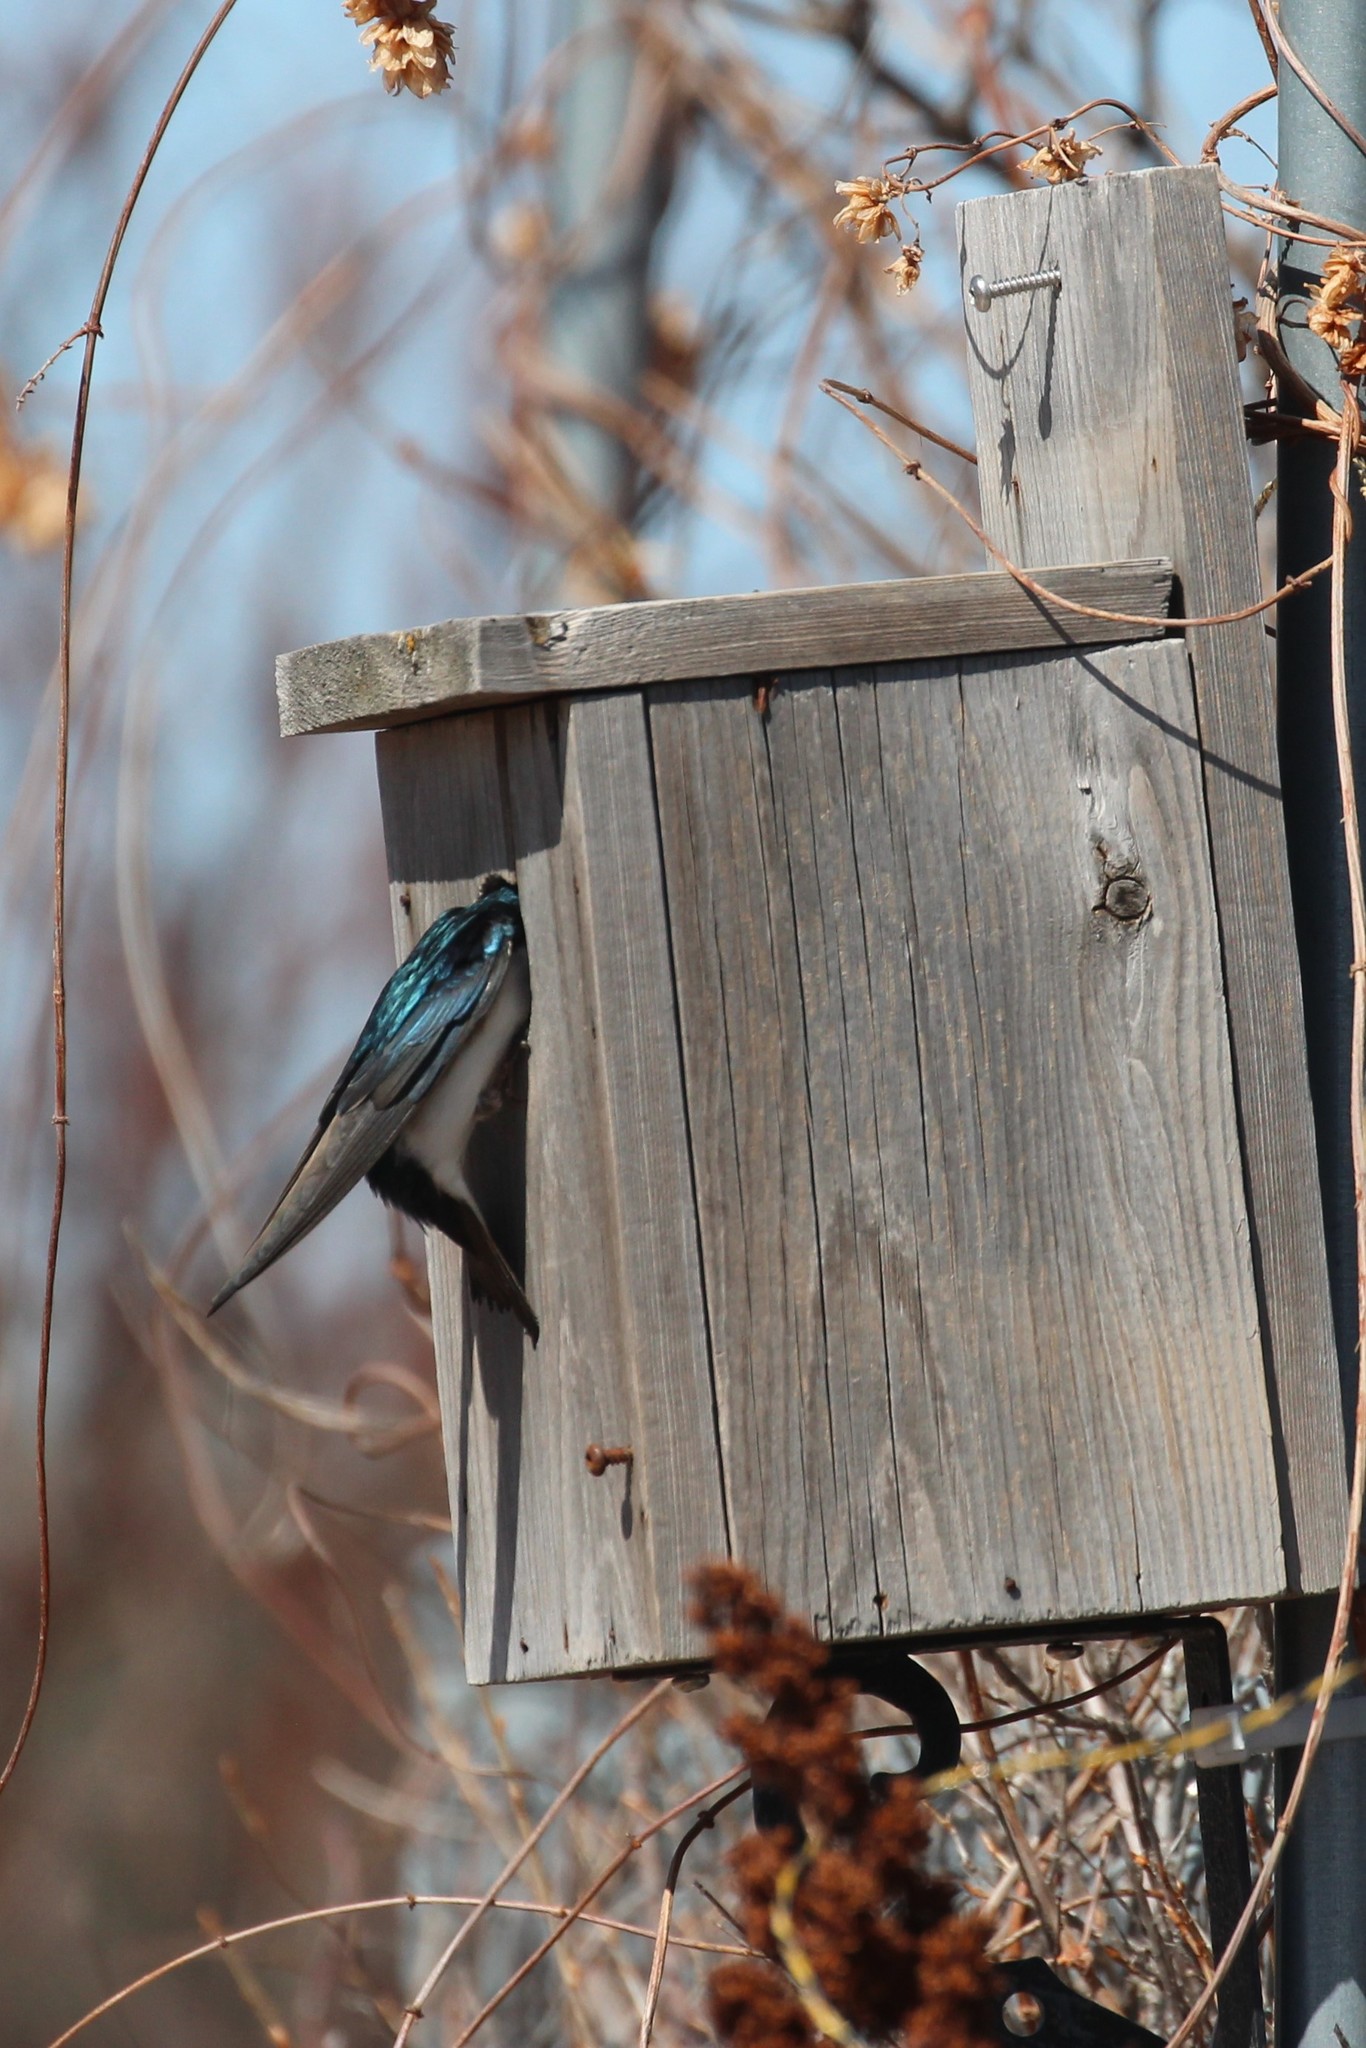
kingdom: Animalia
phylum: Chordata
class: Aves
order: Passeriformes
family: Hirundinidae
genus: Tachycineta
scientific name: Tachycineta bicolor
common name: Tree swallow
